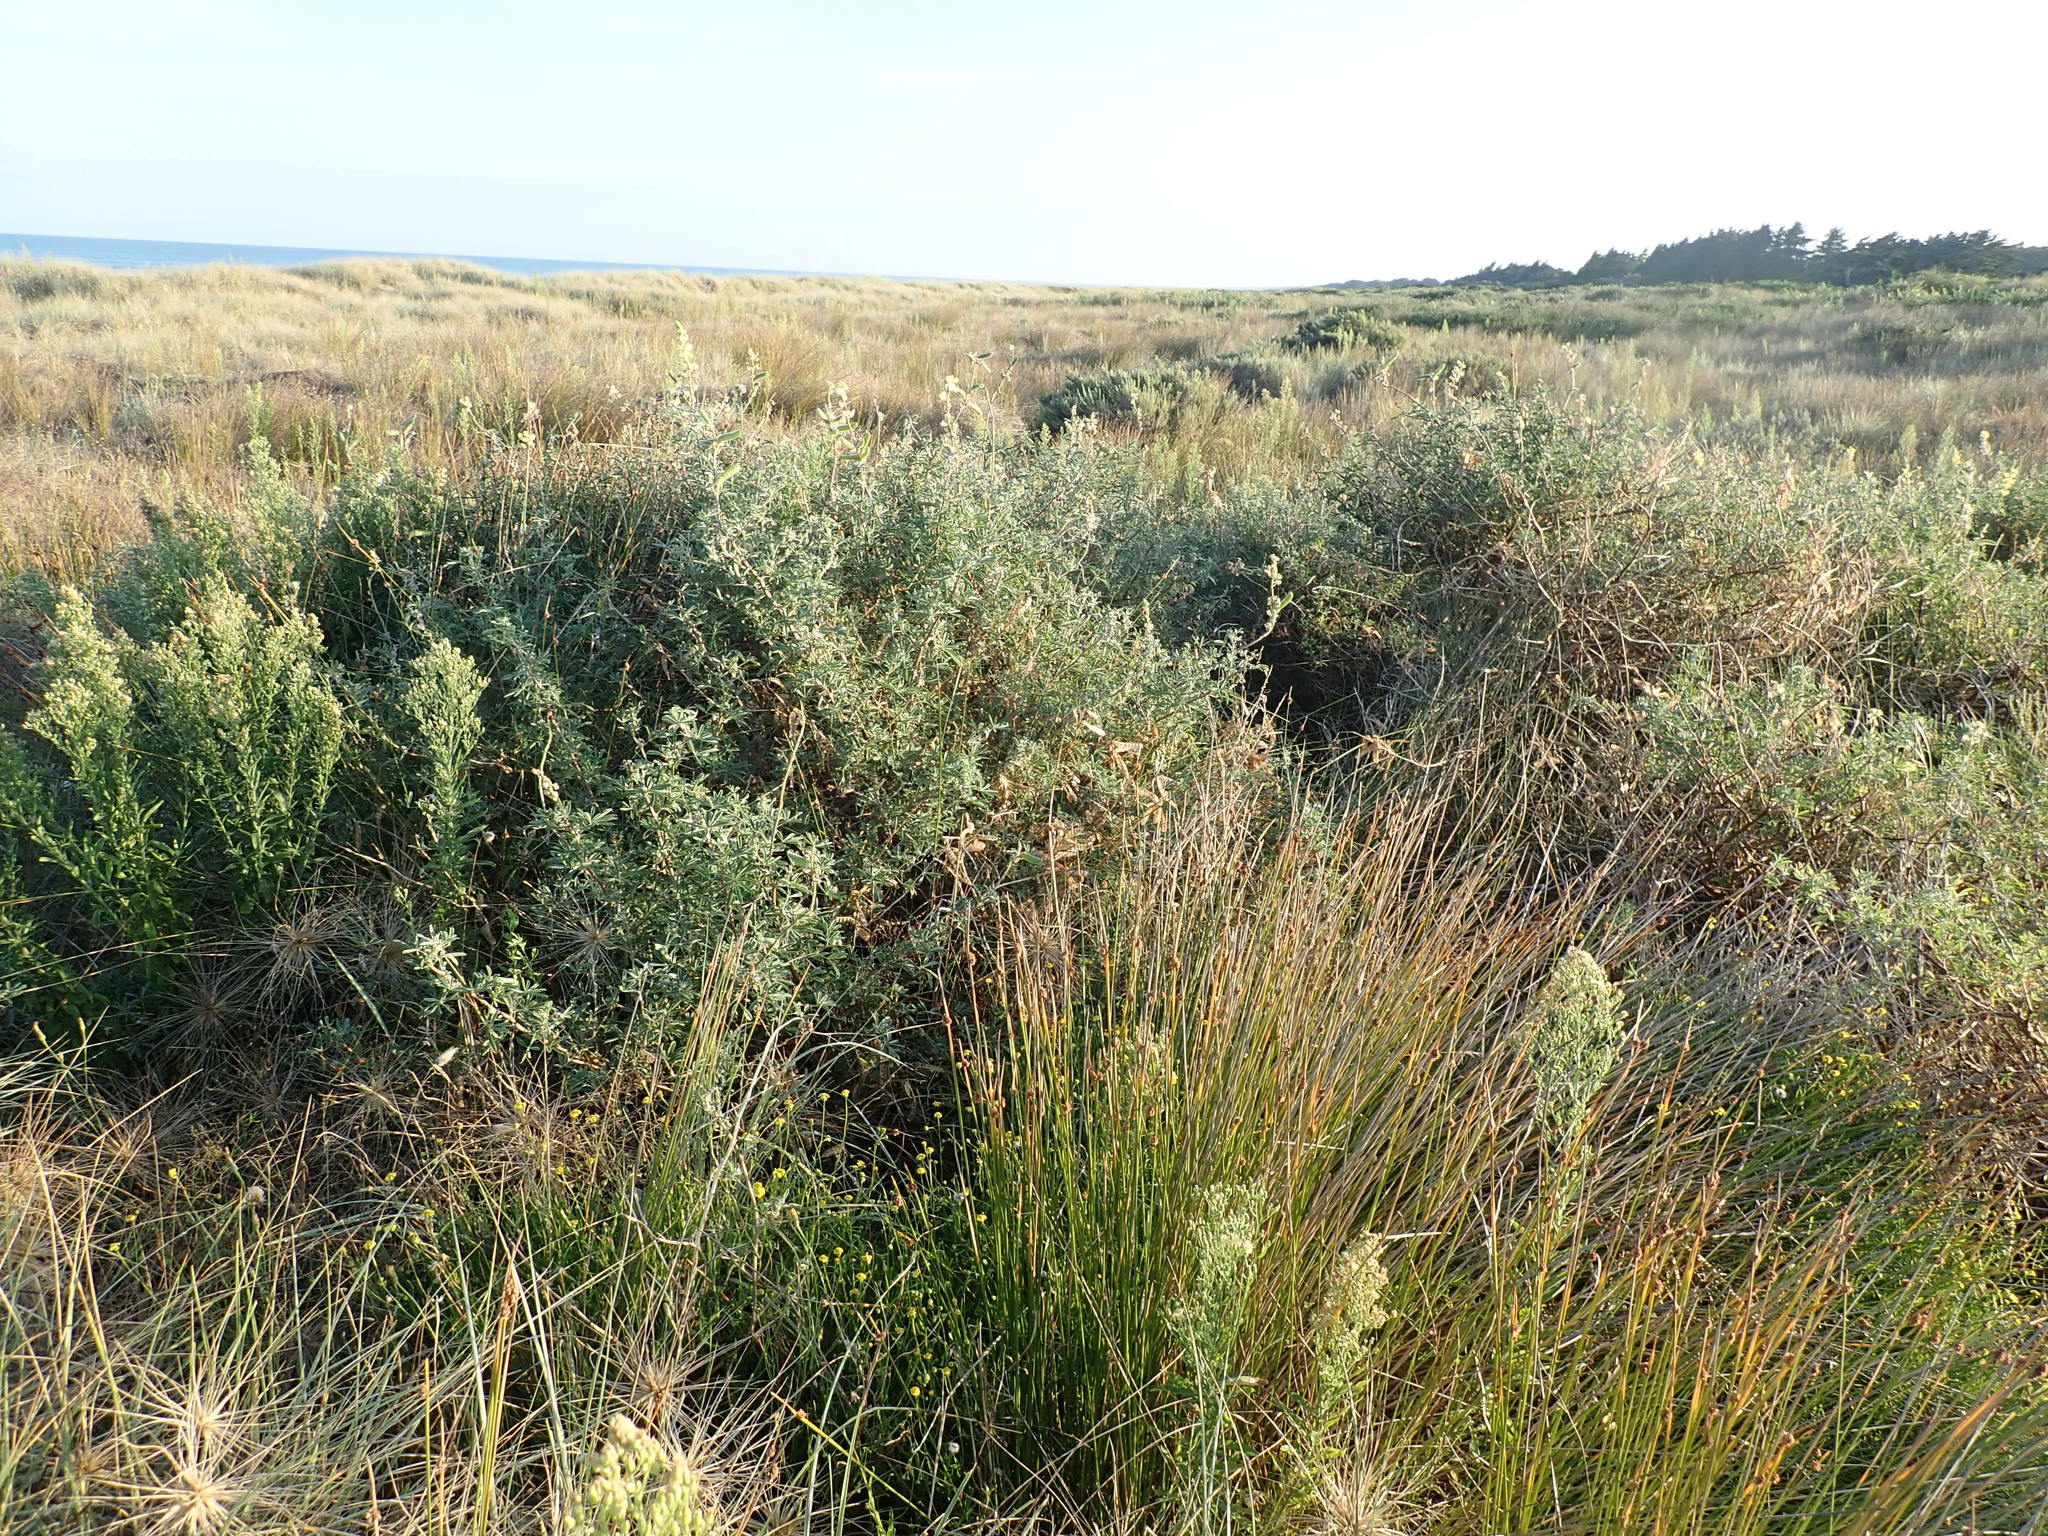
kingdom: Plantae
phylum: Tracheophyta
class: Magnoliopsida
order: Fabales
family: Fabaceae
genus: Lupinus
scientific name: Lupinus arboreus
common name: Yellow bush lupine
